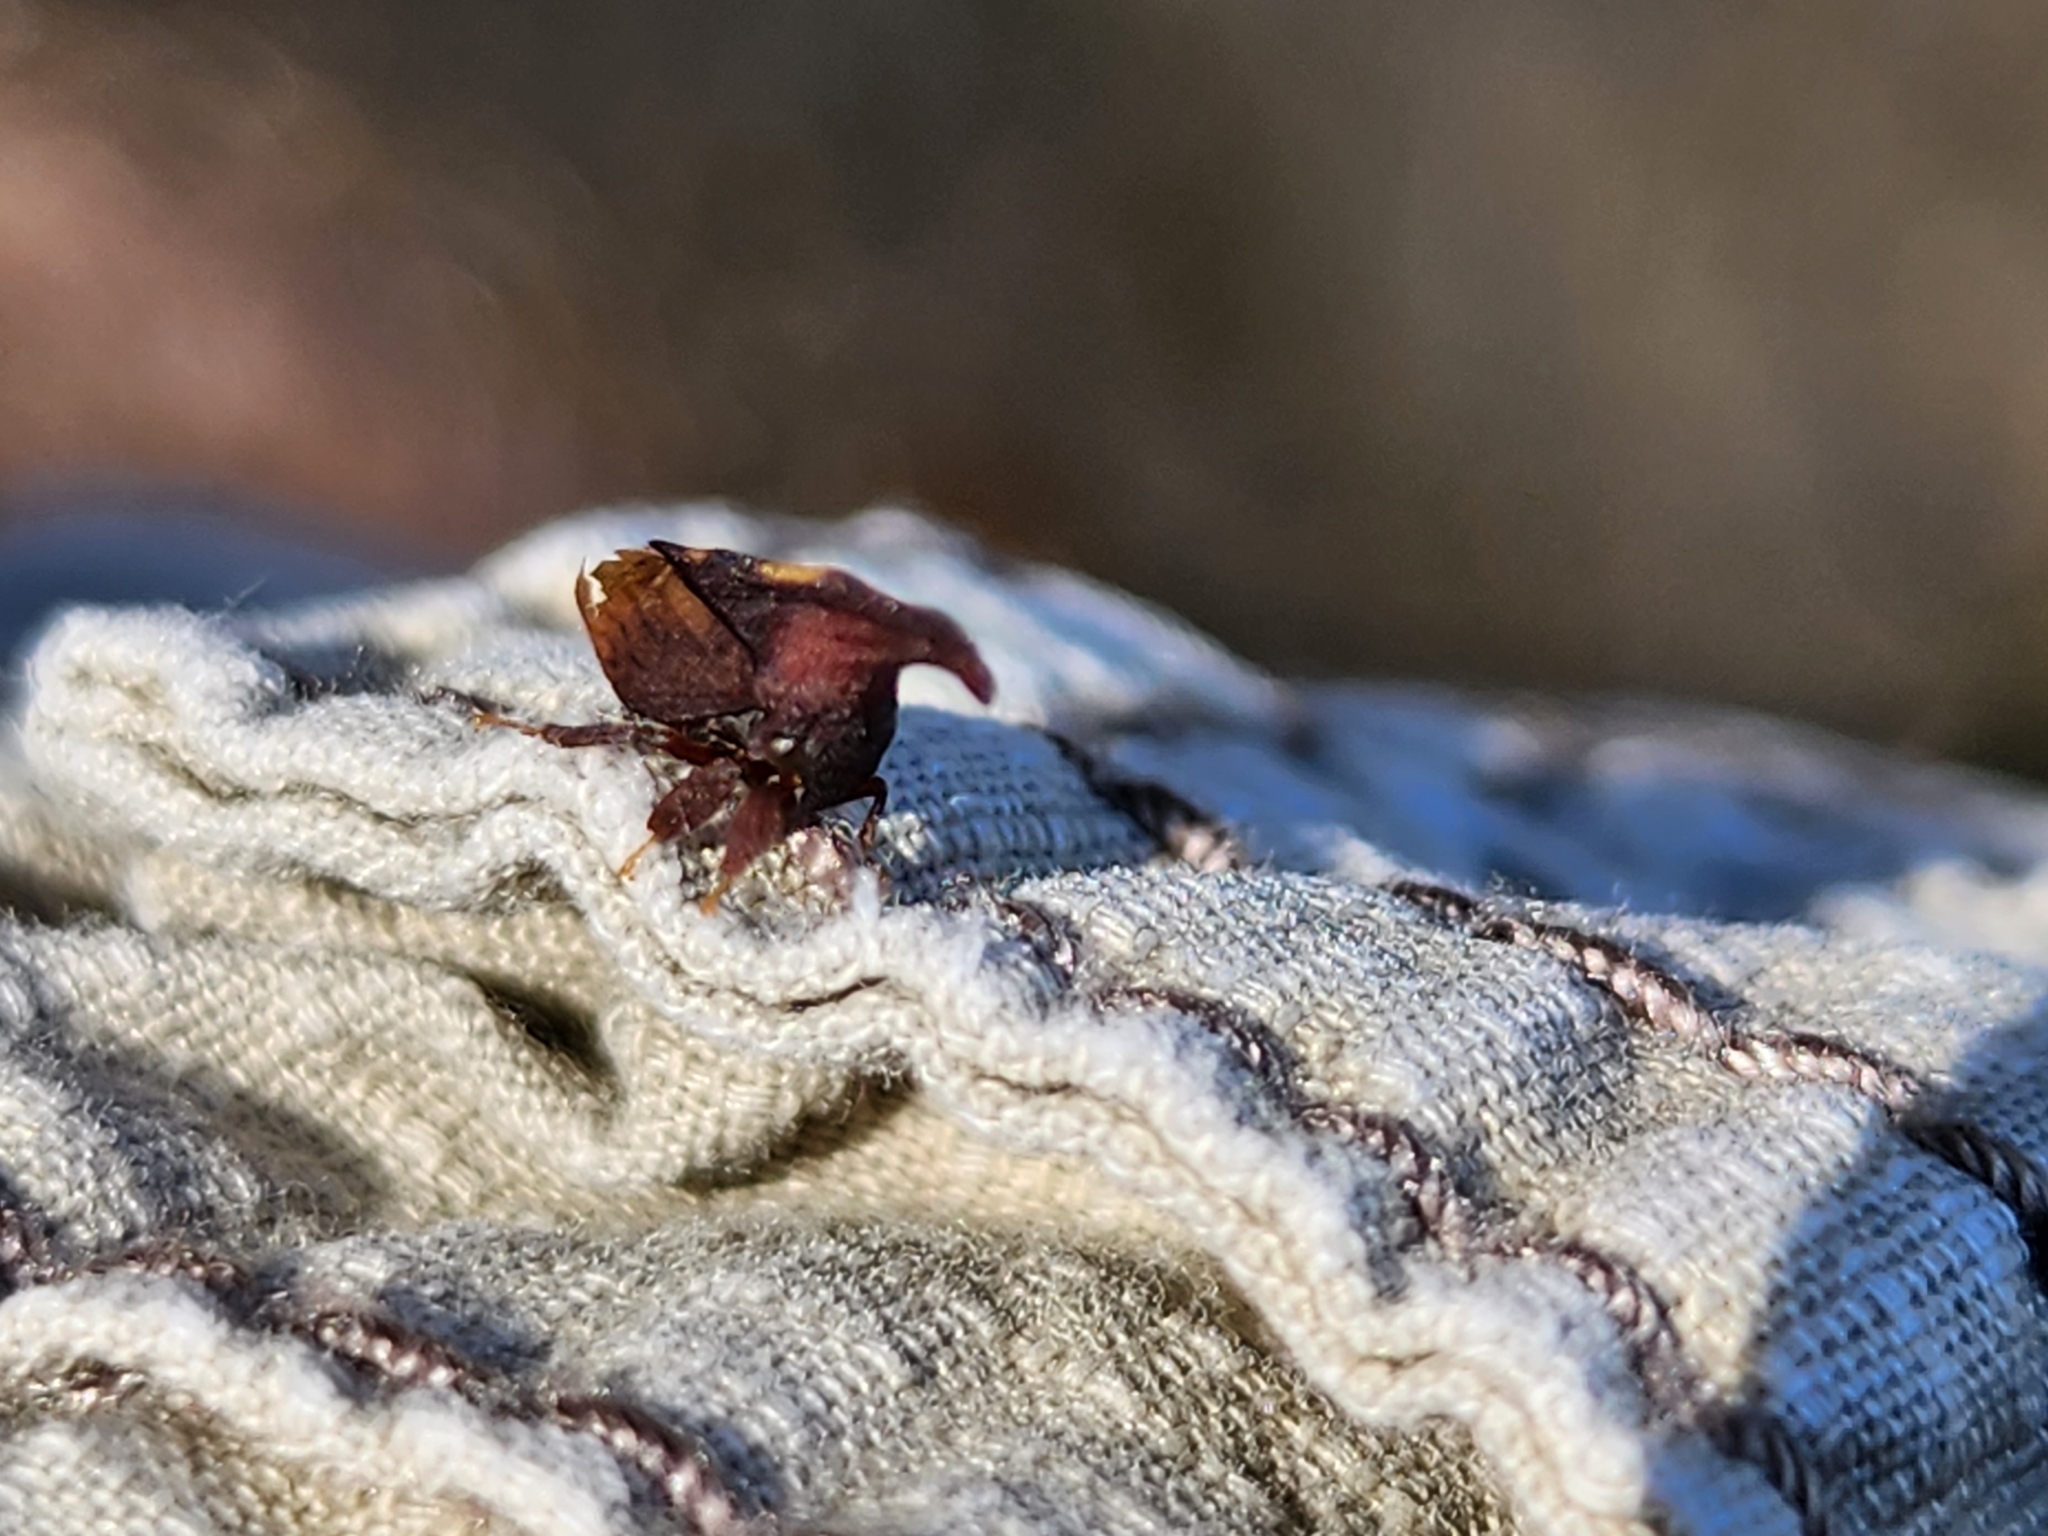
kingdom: Animalia
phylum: Arthropoda
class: Insecta
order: Hemiptera
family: Membracidae
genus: Enchenopa
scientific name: Enchenopa binotata
